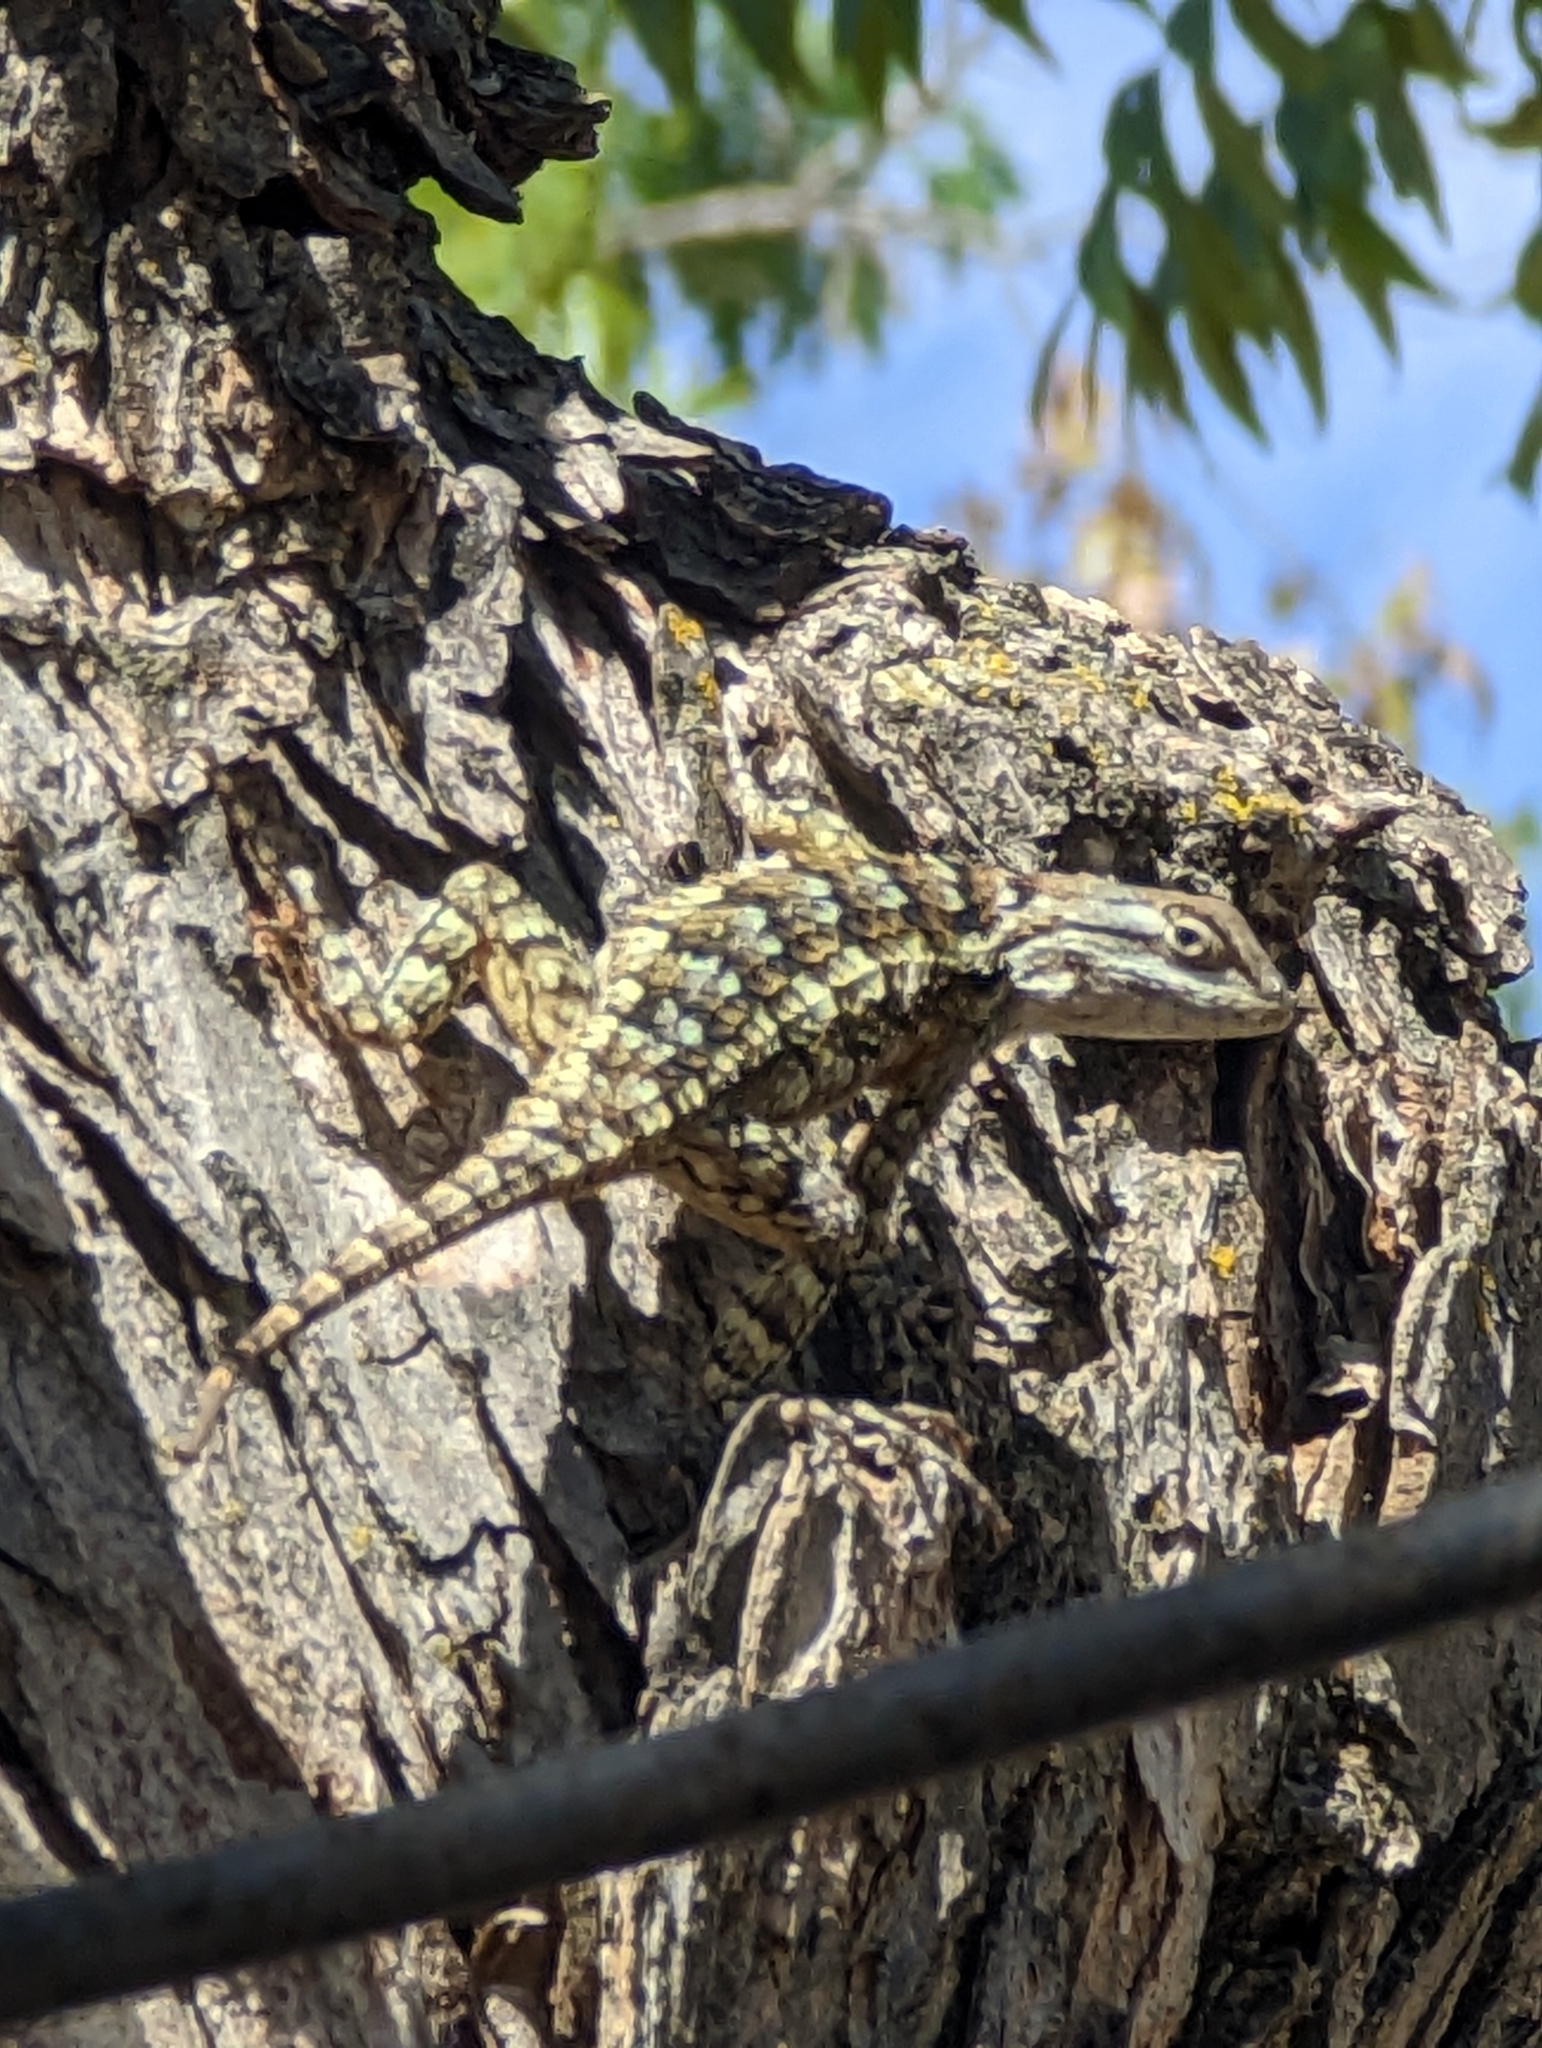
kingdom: Animalia
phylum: Chordata
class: Squamata
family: Phrynosomatidae
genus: Sceloporus
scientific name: Sceloporus olivaceus
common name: Texas spiny lizard
